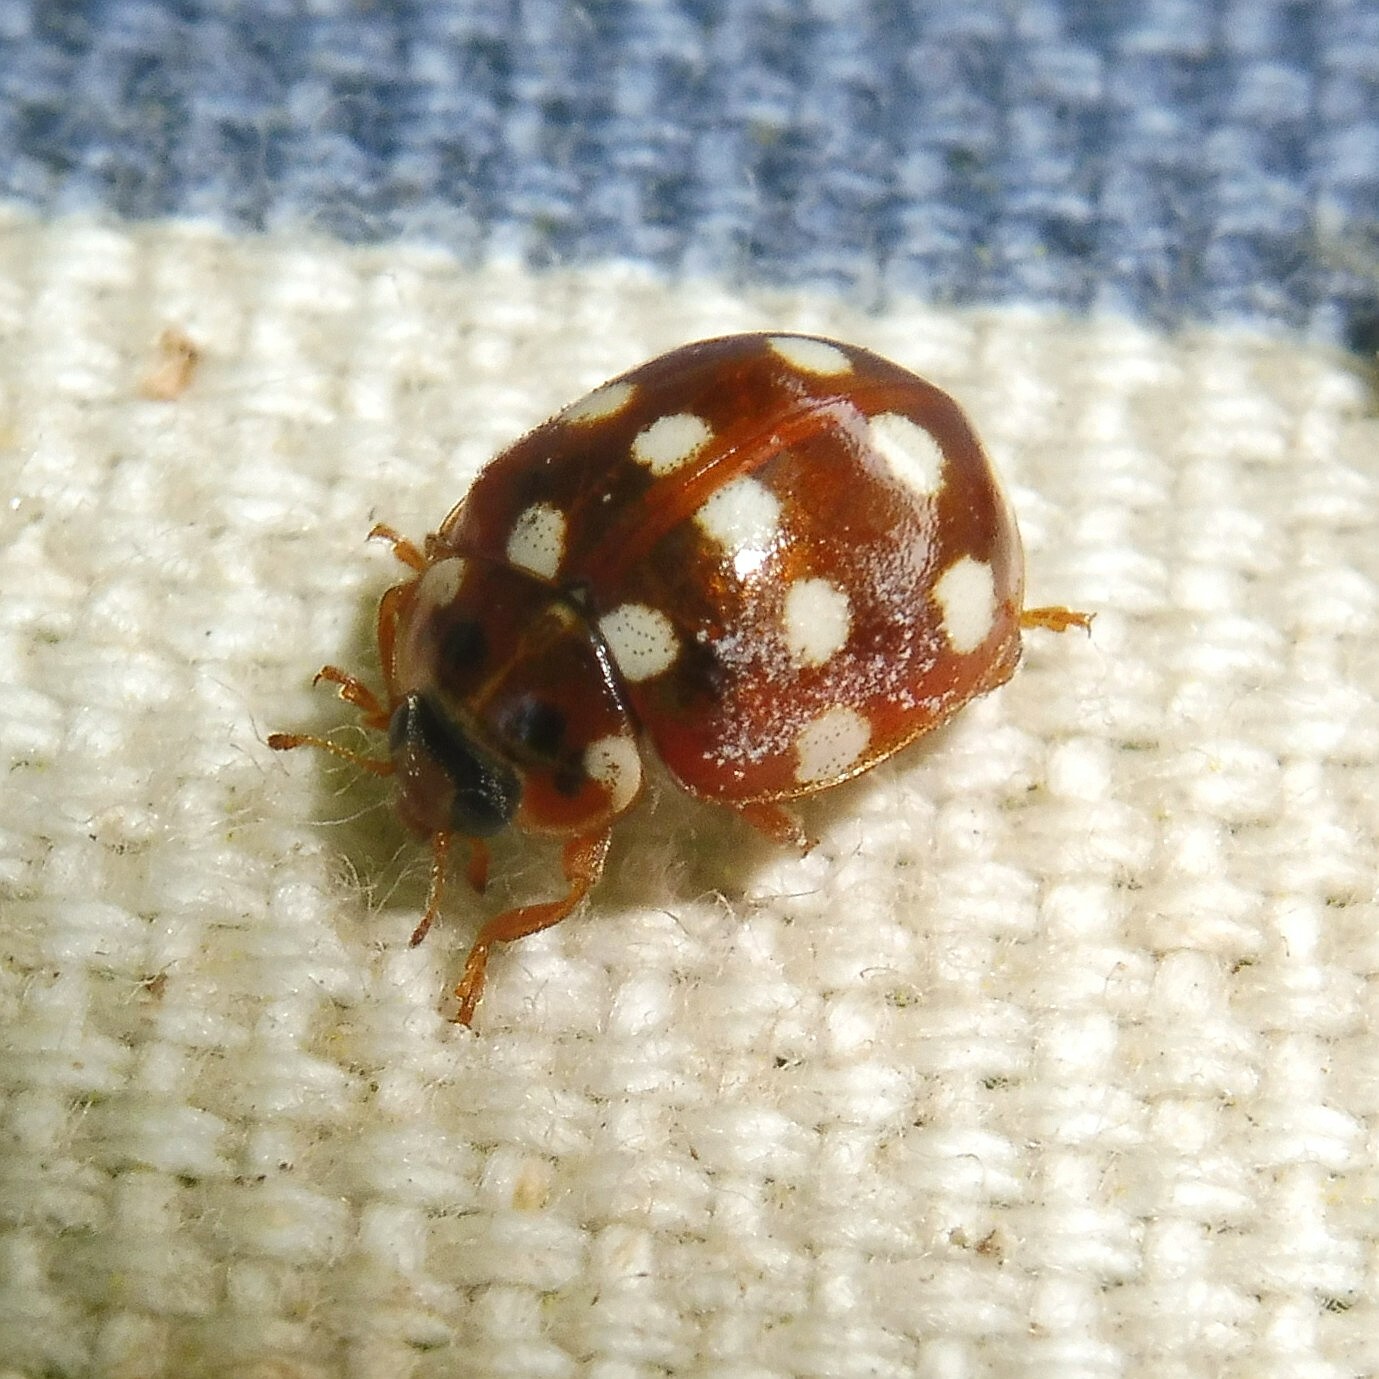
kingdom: Animalia
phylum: Arthropoda
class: Insecta
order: Coleoptera
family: Coccinellidae
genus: Calvia
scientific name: Calvia quatuordecimguttata
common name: Cream-spot ladybird
